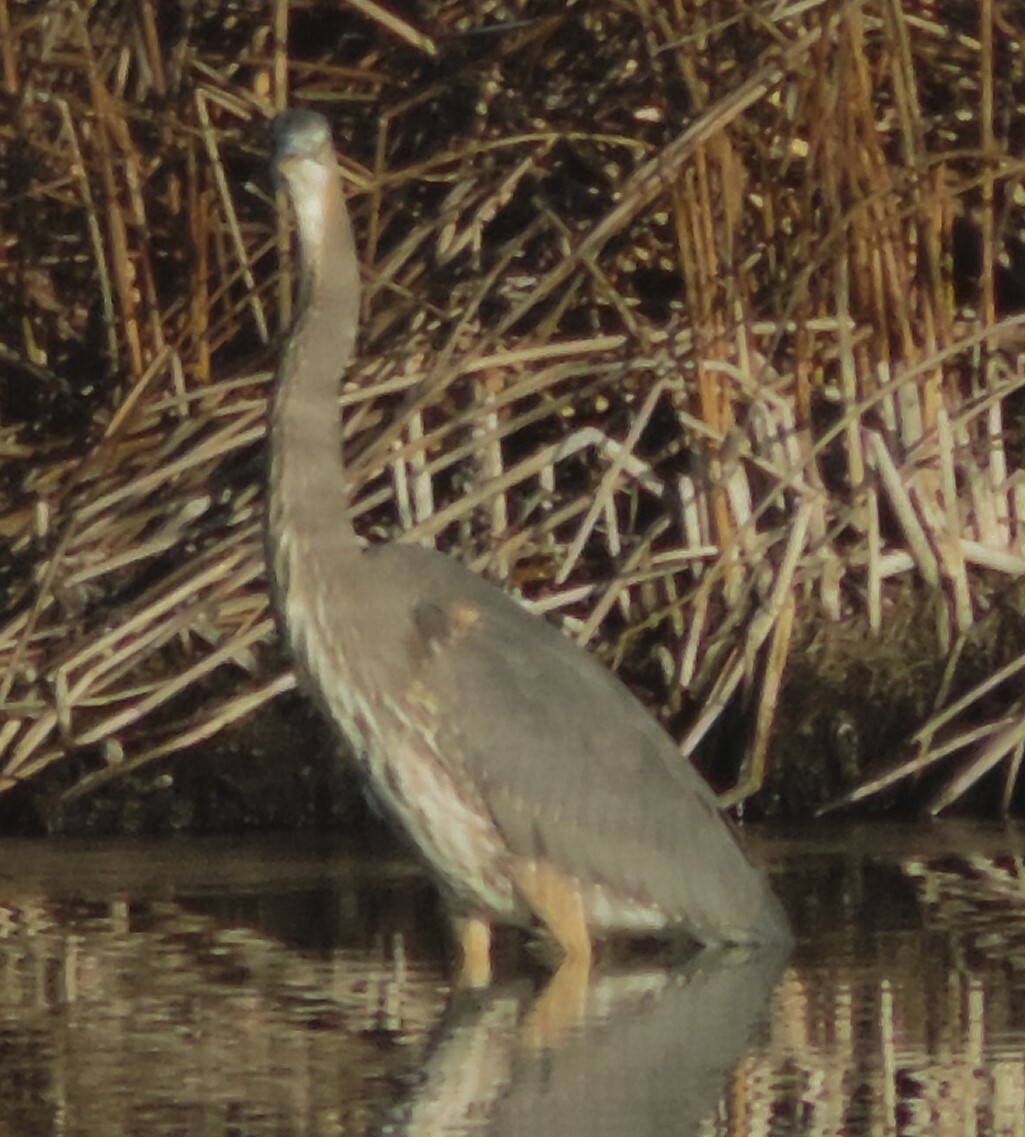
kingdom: Animalia
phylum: Chordata
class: Aves
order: Pelecaniformes
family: Ardeidae
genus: Ardea
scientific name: Ardea herodias
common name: Great blue heron
